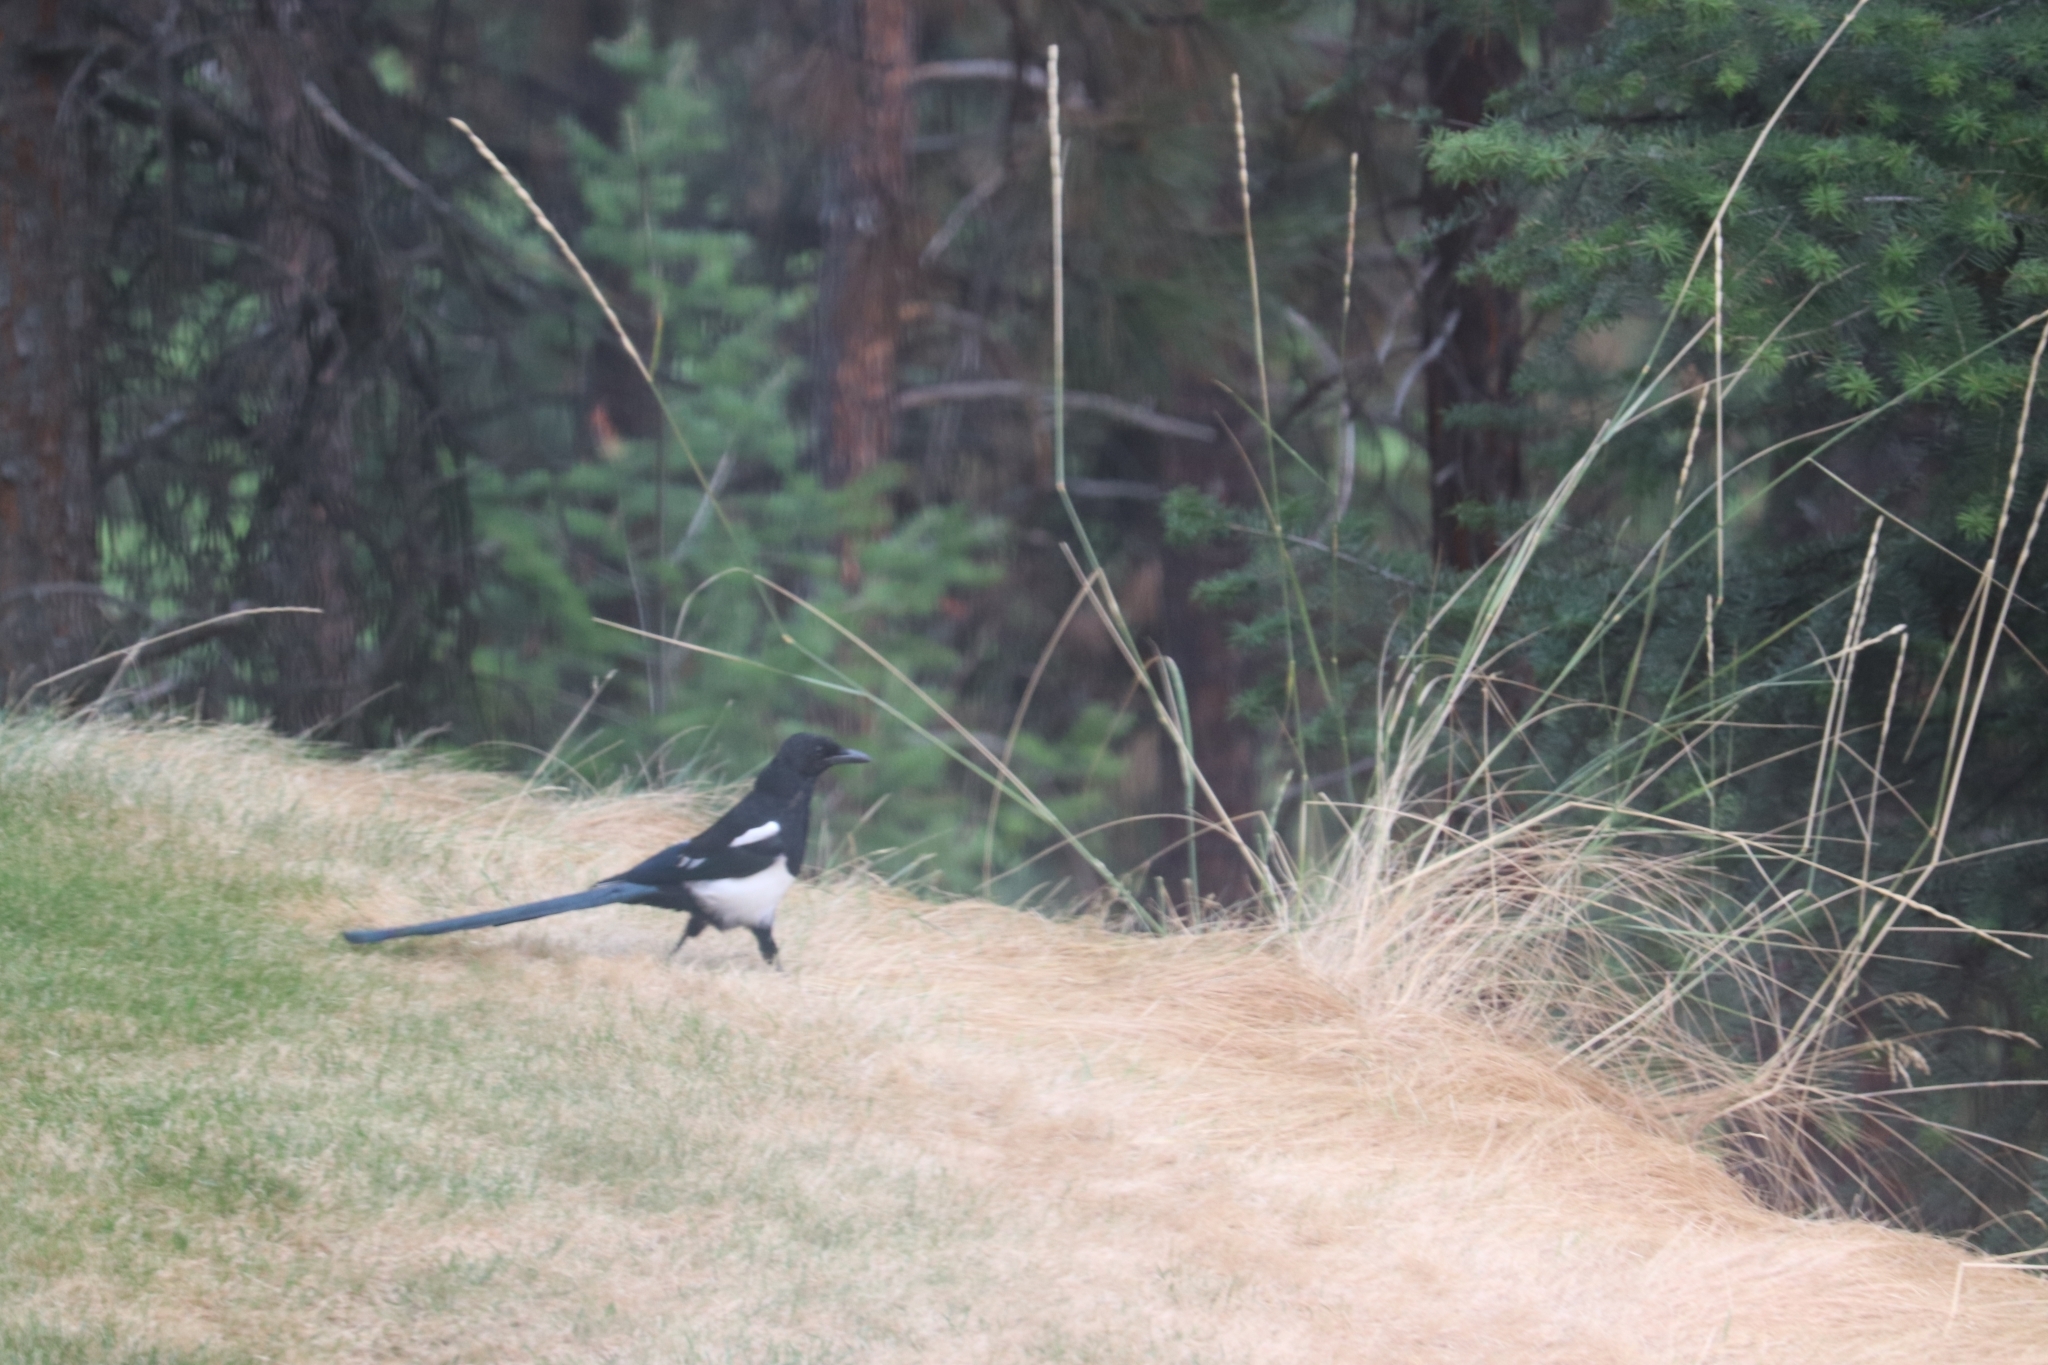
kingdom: Animalia
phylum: Chordata
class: Aves
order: Passeriformes
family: Corvidae
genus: Pica
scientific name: Pica hudsonia
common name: Black-billed magpie
